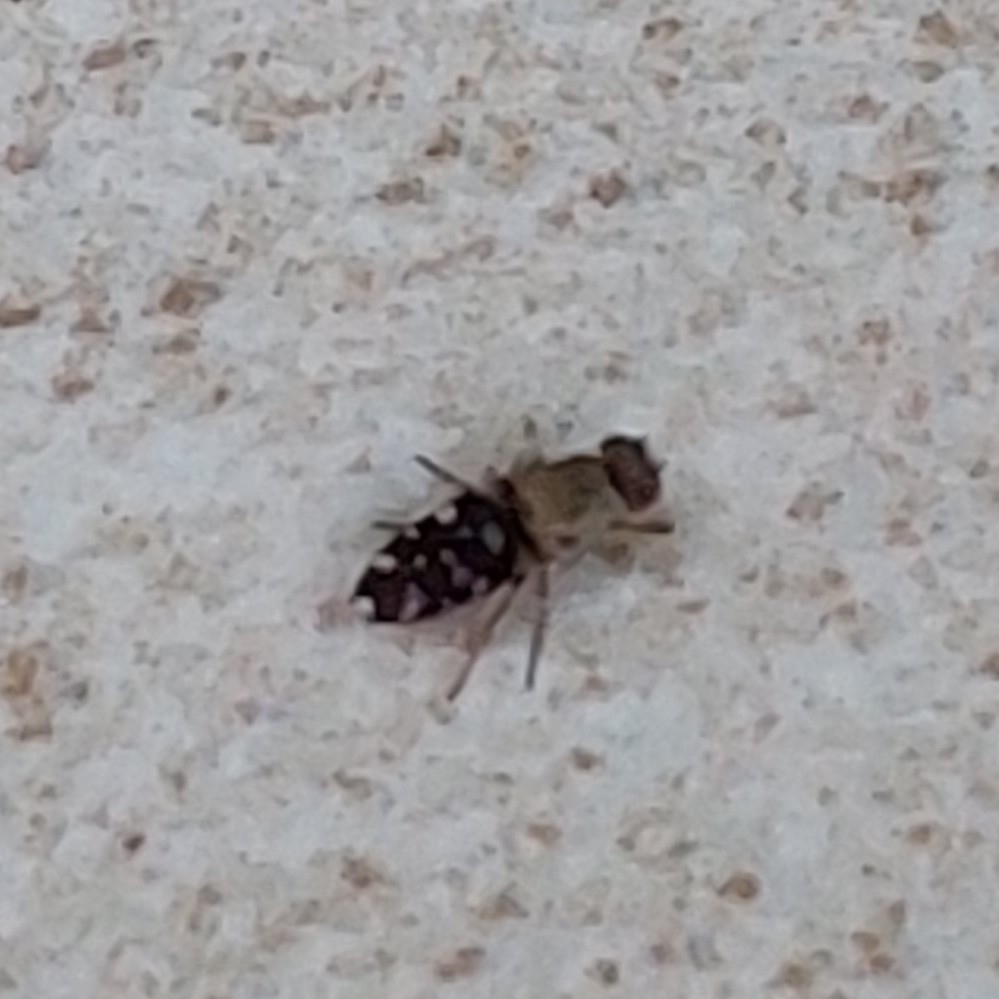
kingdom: Animalia
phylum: Arthropoda
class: Insecta
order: Diptera
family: Ephydridae
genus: Actocetor
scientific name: Actocetor indicus
